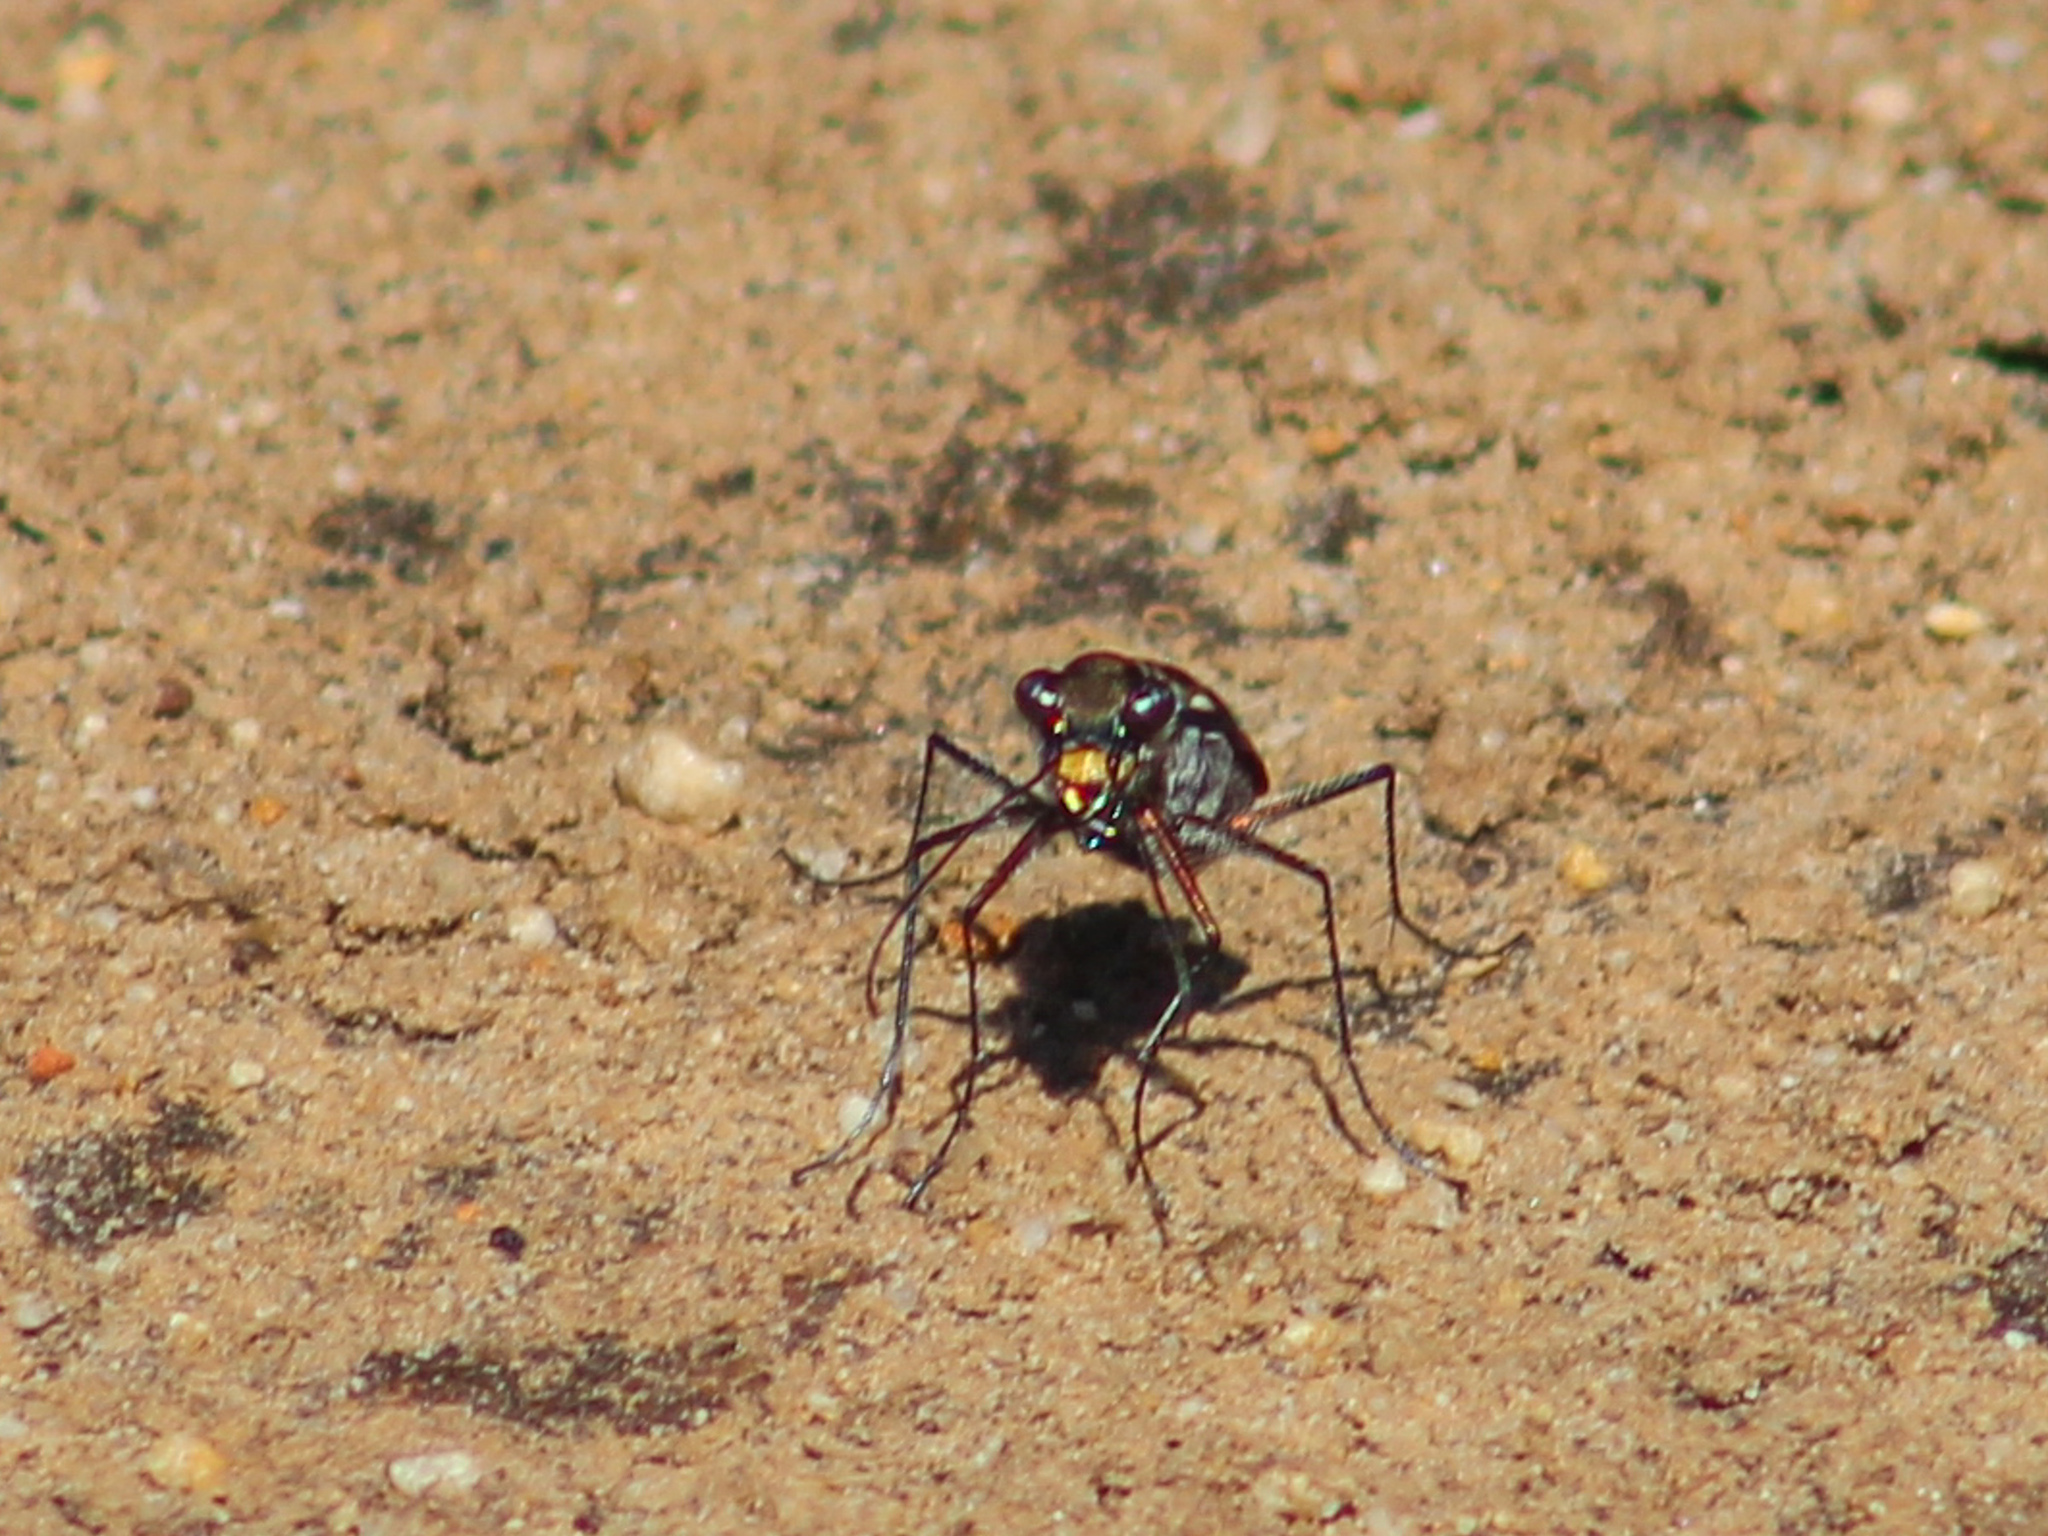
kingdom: Animalia
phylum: Arthropoda
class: Insecta
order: Coleoptera
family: Carabidae
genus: Cicindela
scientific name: Cicindela funerea
